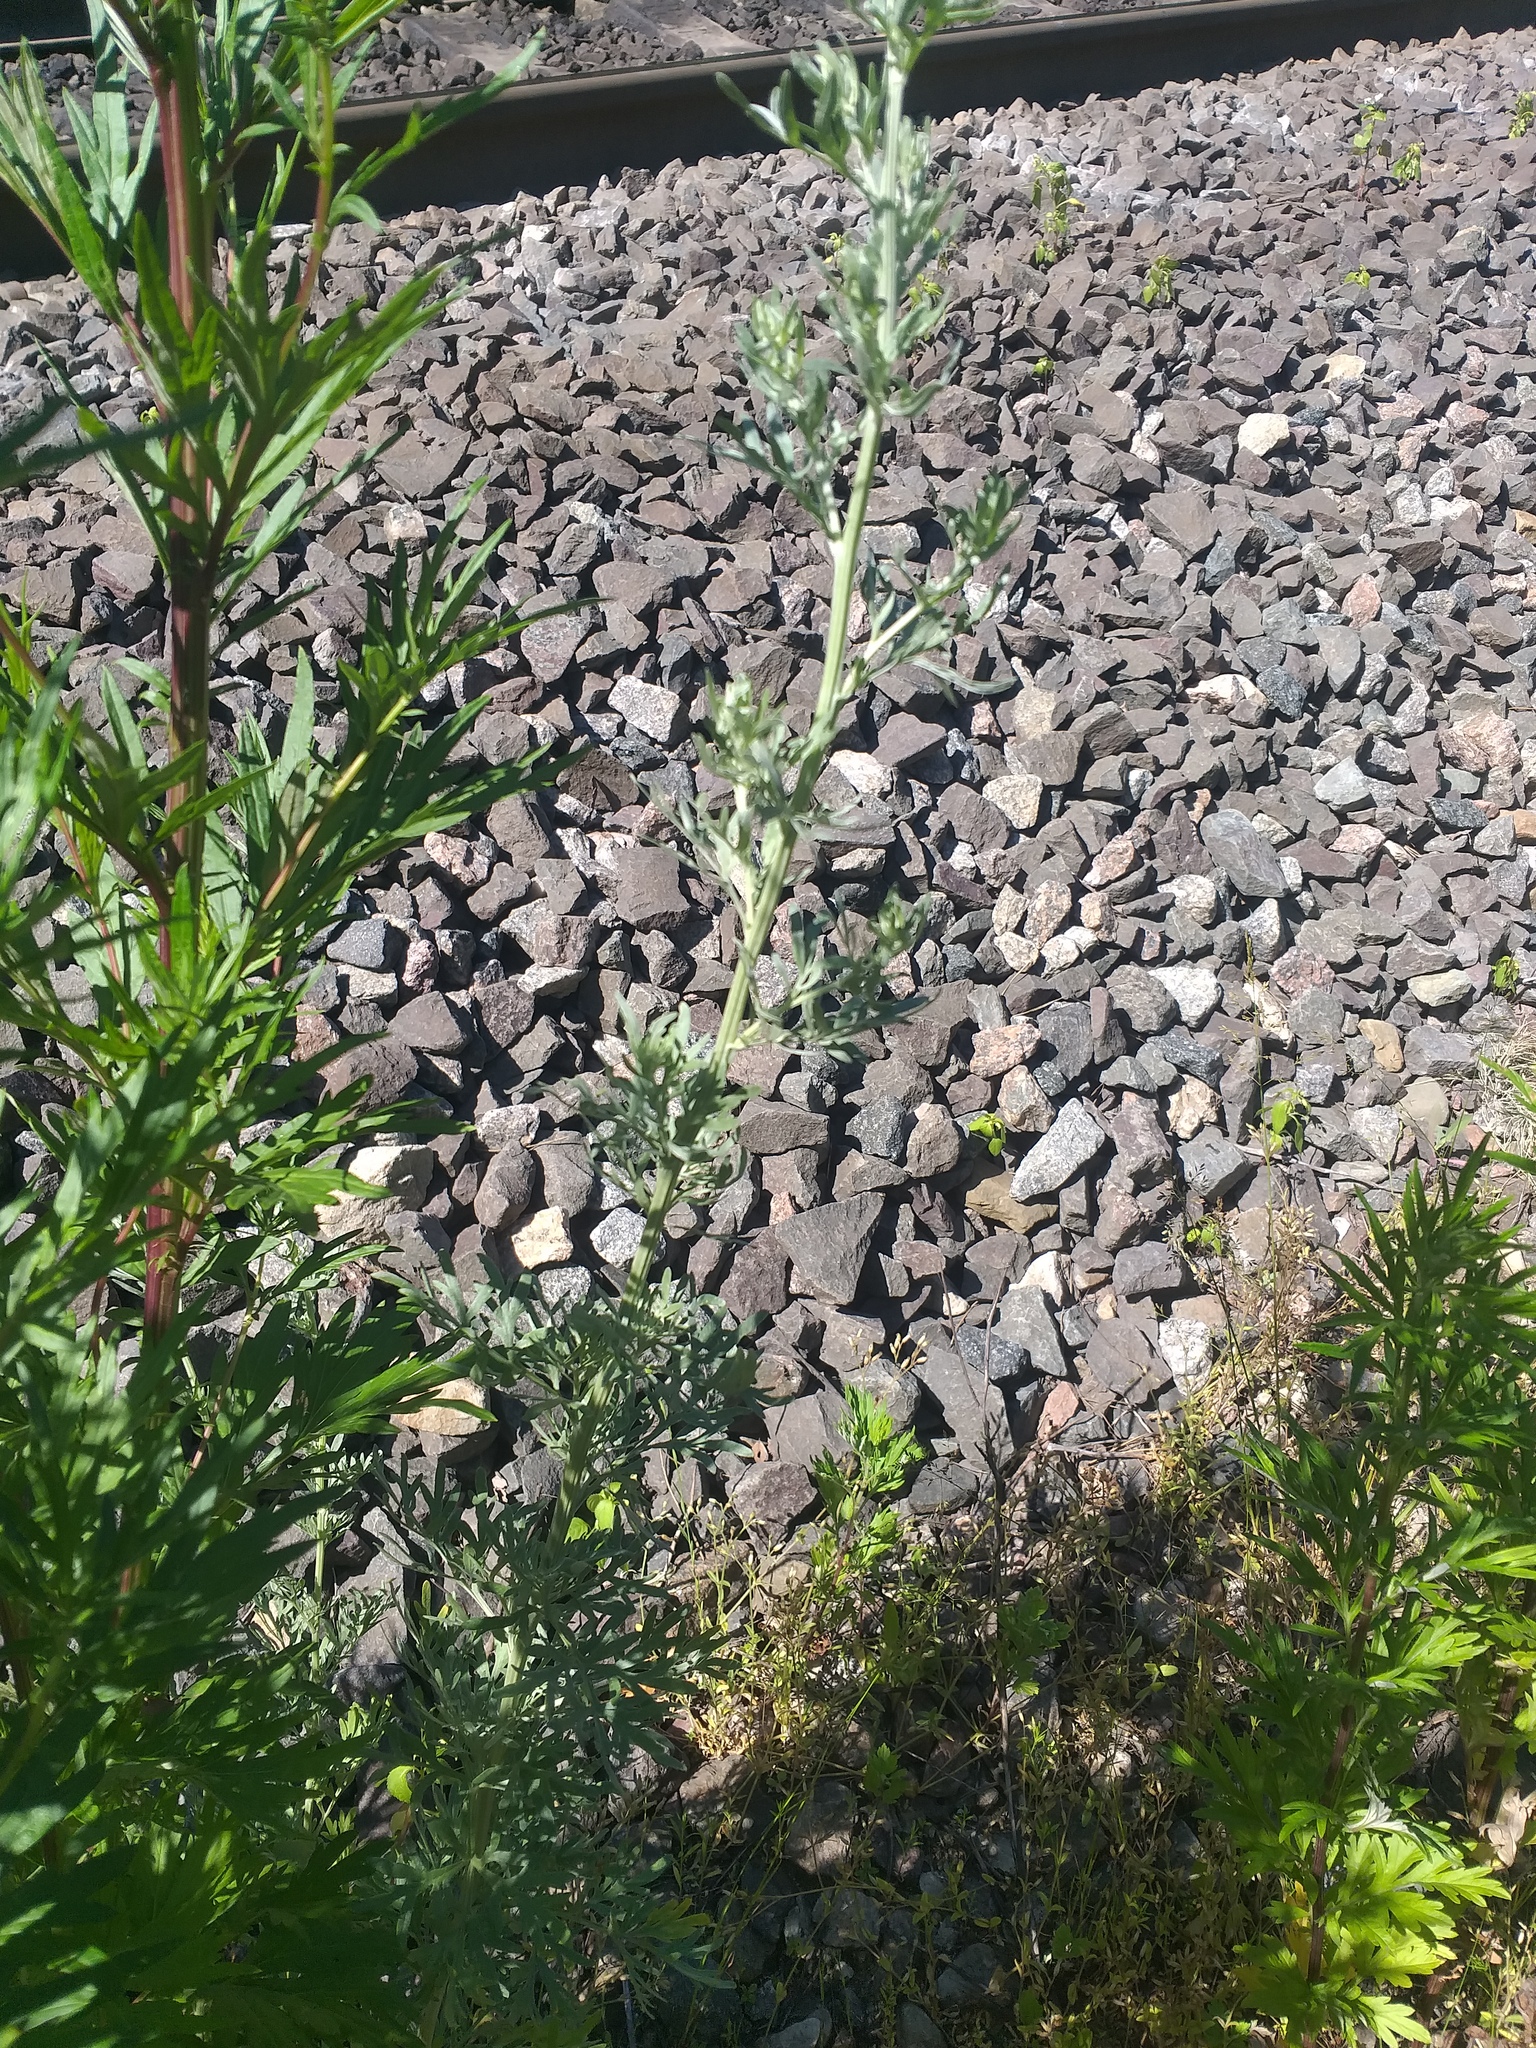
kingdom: Plantae
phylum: Tracheophyta
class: Magnoliopsida
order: Asterales
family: Asteraceae
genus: Artemisia
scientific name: Artemisia absinthium
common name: Wormwood
